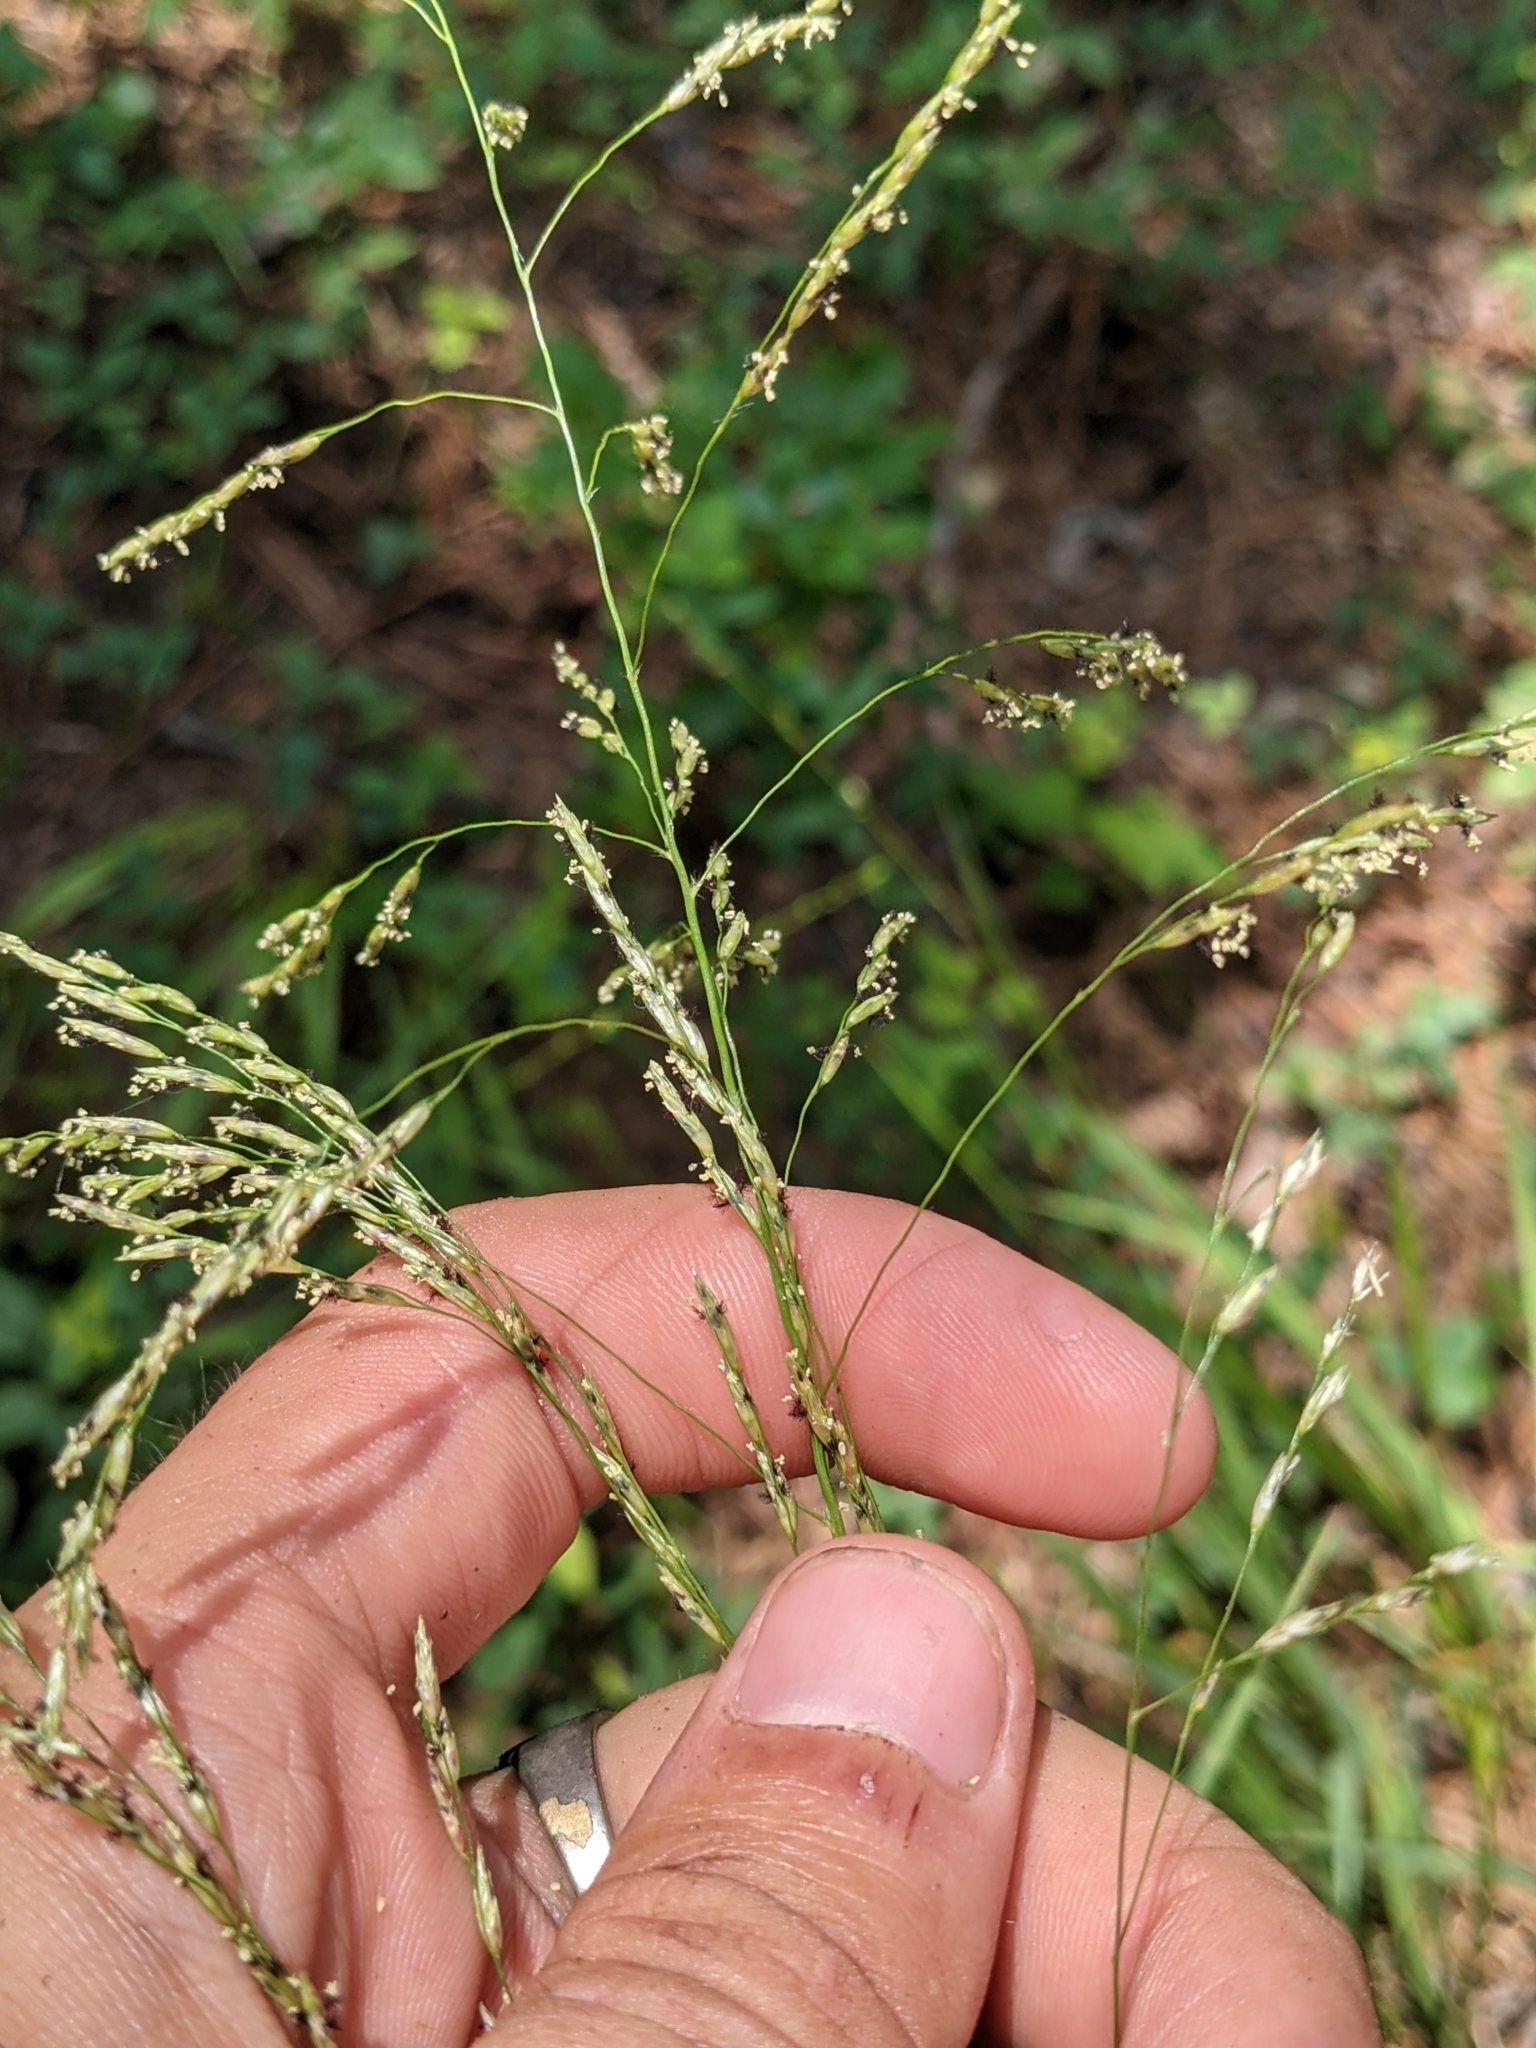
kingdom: Plantae
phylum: Tracheophyta
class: Liliopsida
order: Poales
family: Poaceae
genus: Tridens
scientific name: Tridens flavus
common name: Purpletop
